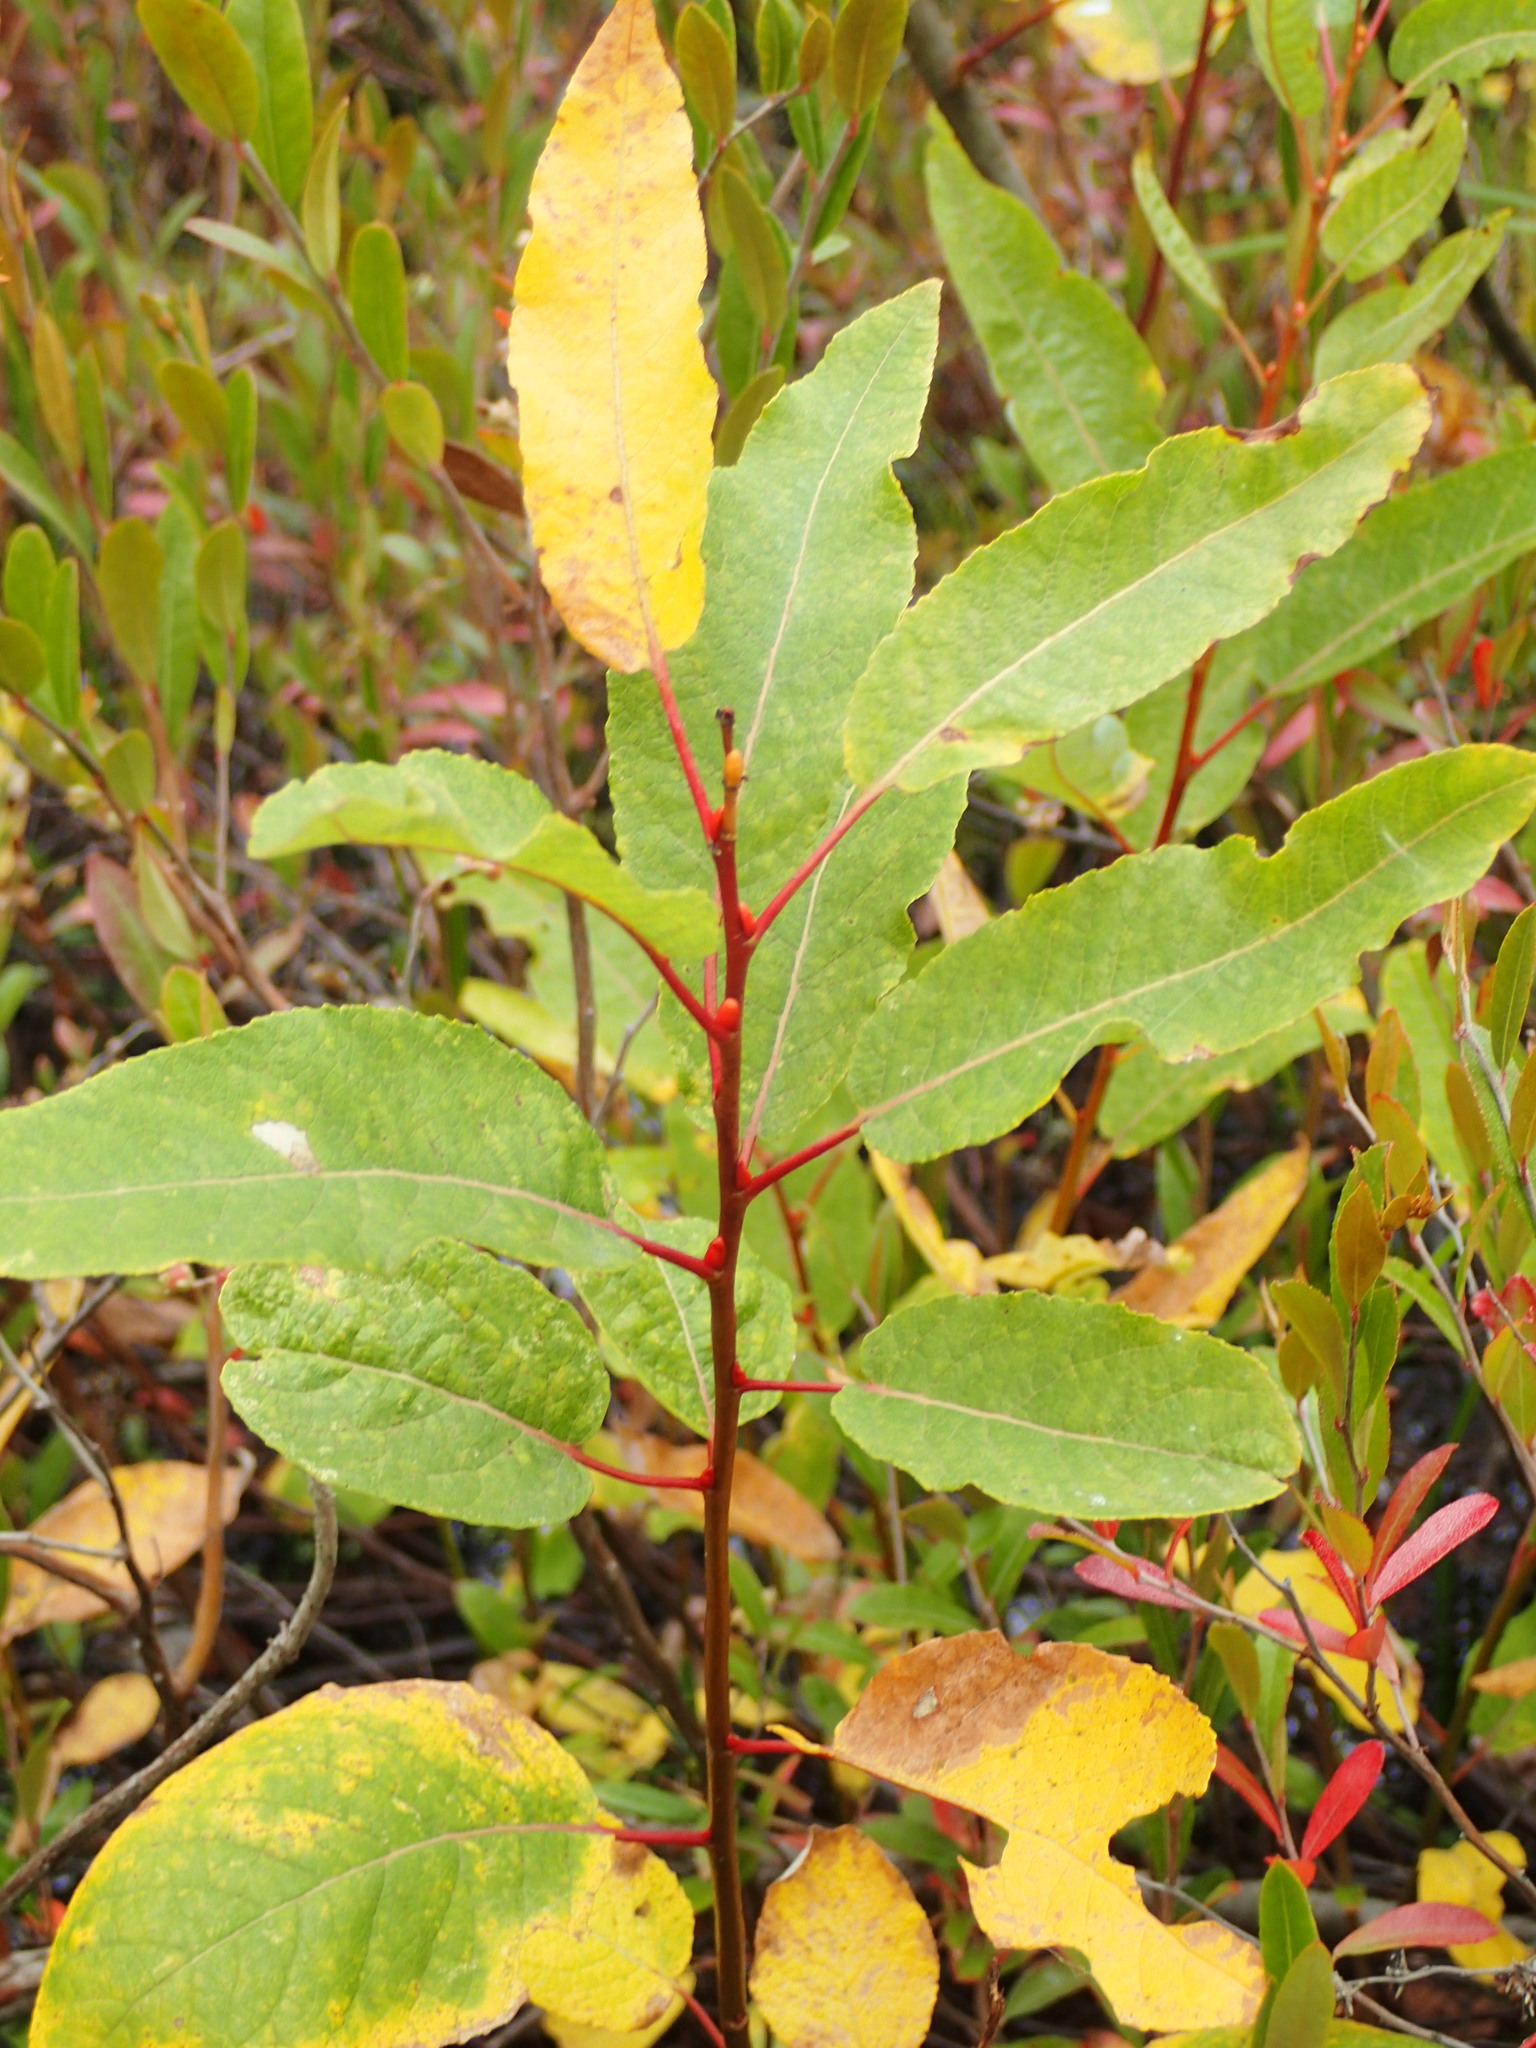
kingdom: Plantae
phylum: Tracheophyta
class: Magnoliopsida
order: Malpighiales
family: Salicaceae
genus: Salix
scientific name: Salix pyrifolia
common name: Balsam willow
